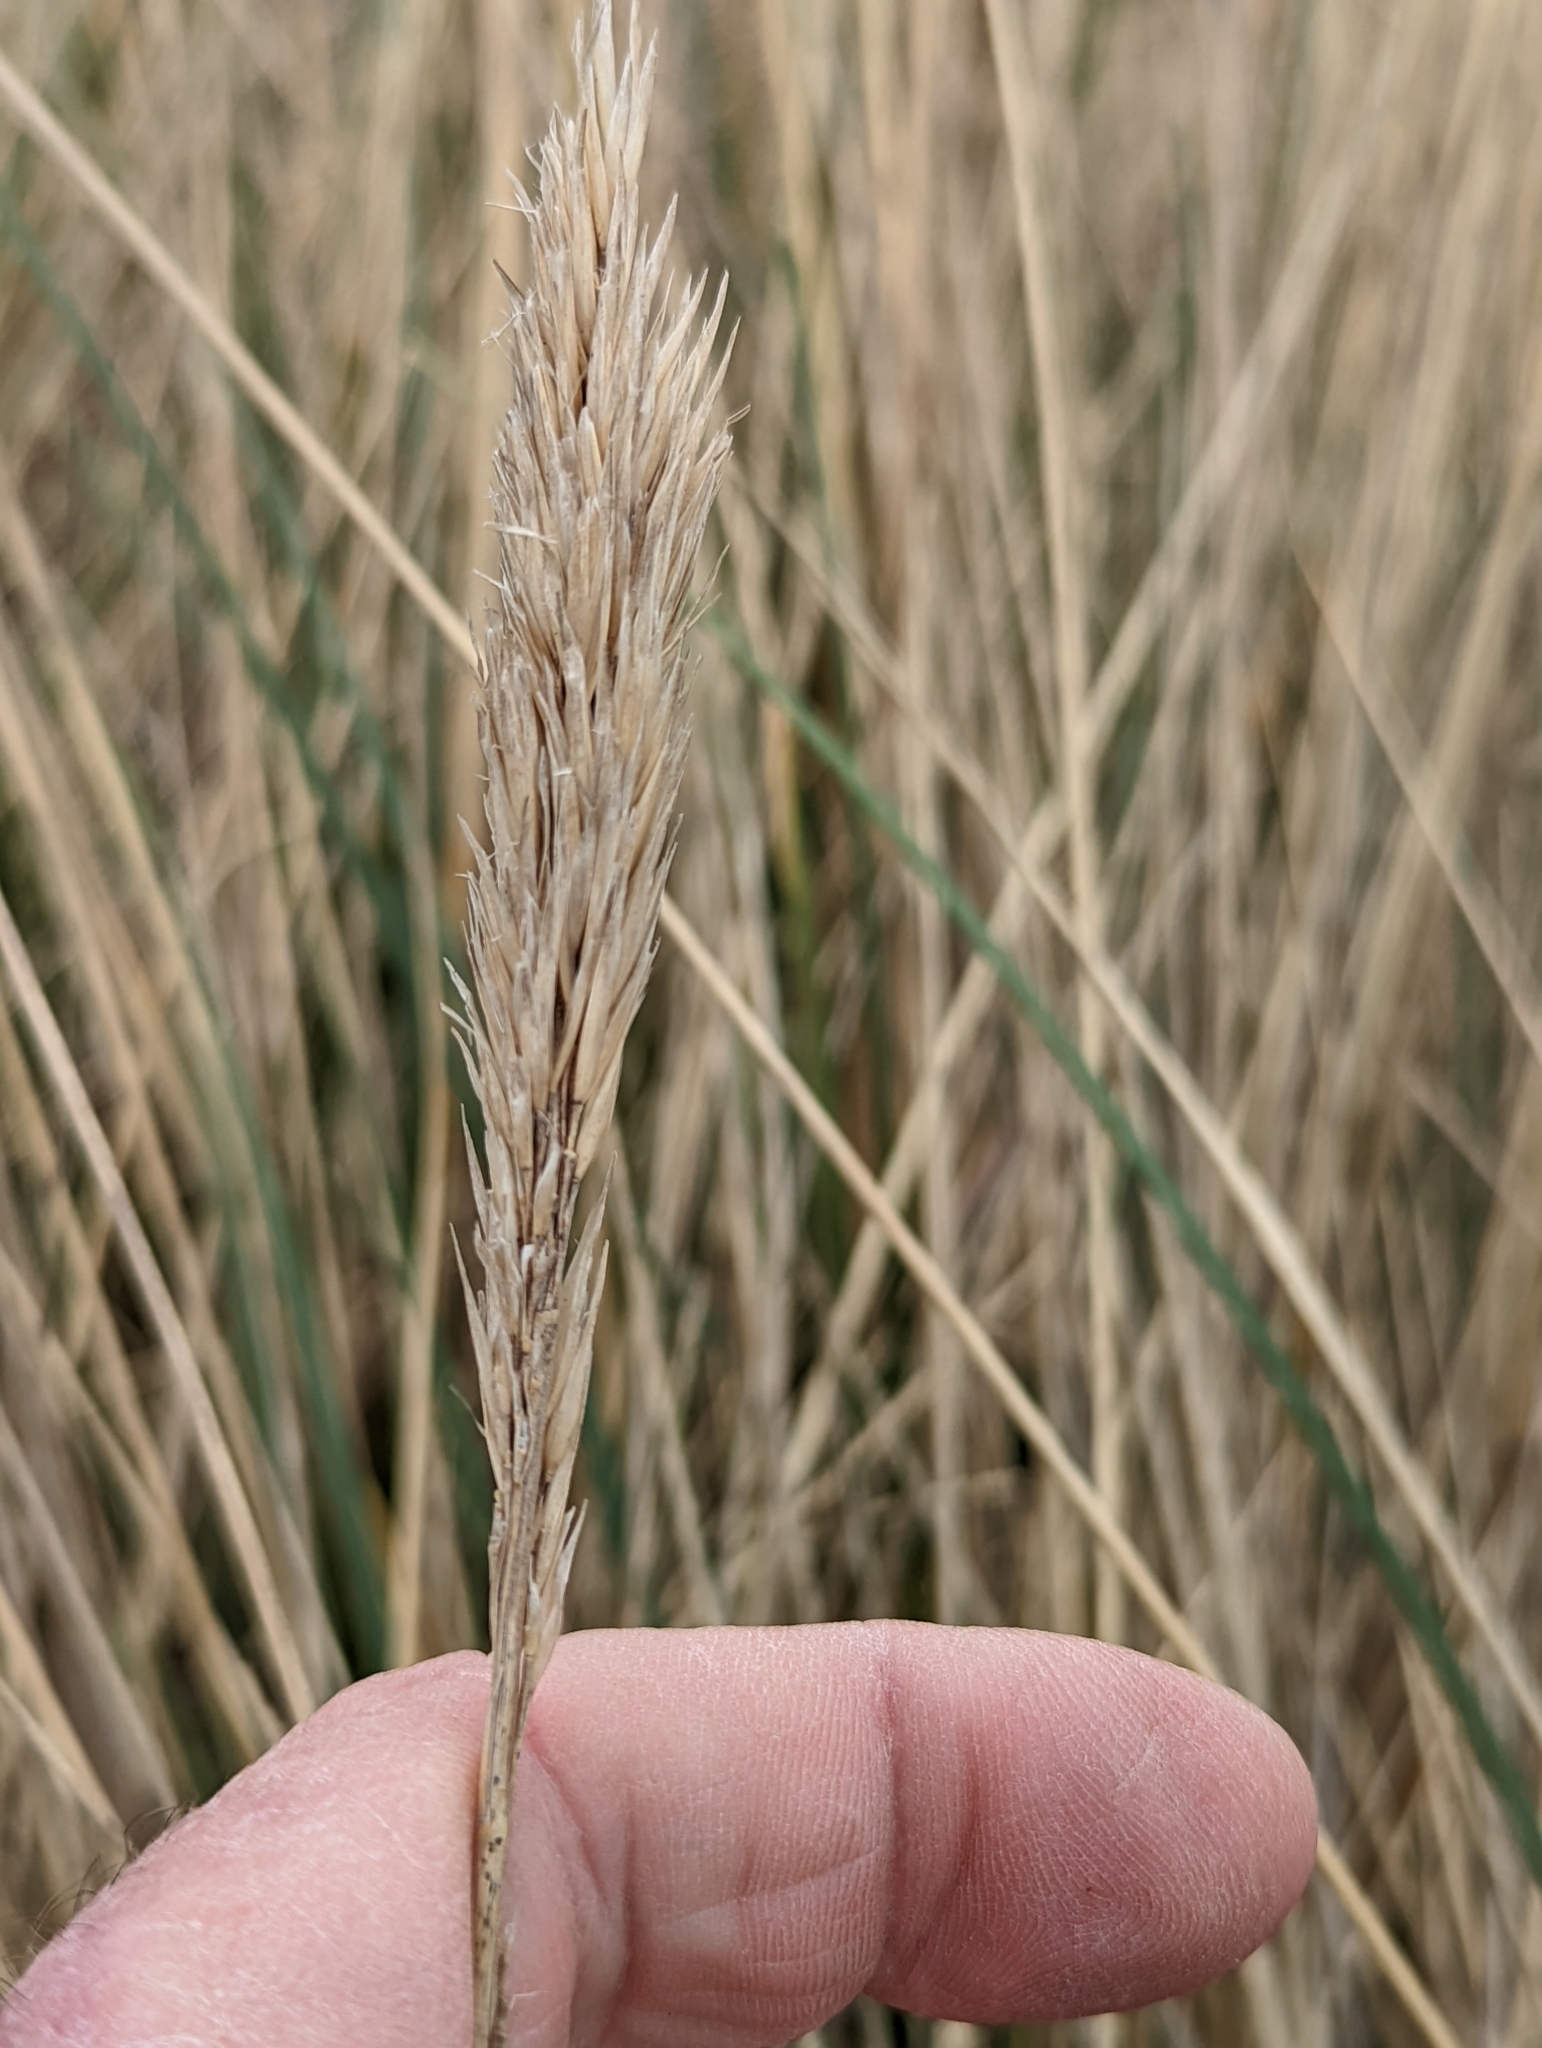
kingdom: Plantae
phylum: Tracheophyta
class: Liliopsida
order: Poales
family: Poaceae
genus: Calamagrostis
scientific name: Calamagrostis arenaria
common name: European beachgrass
